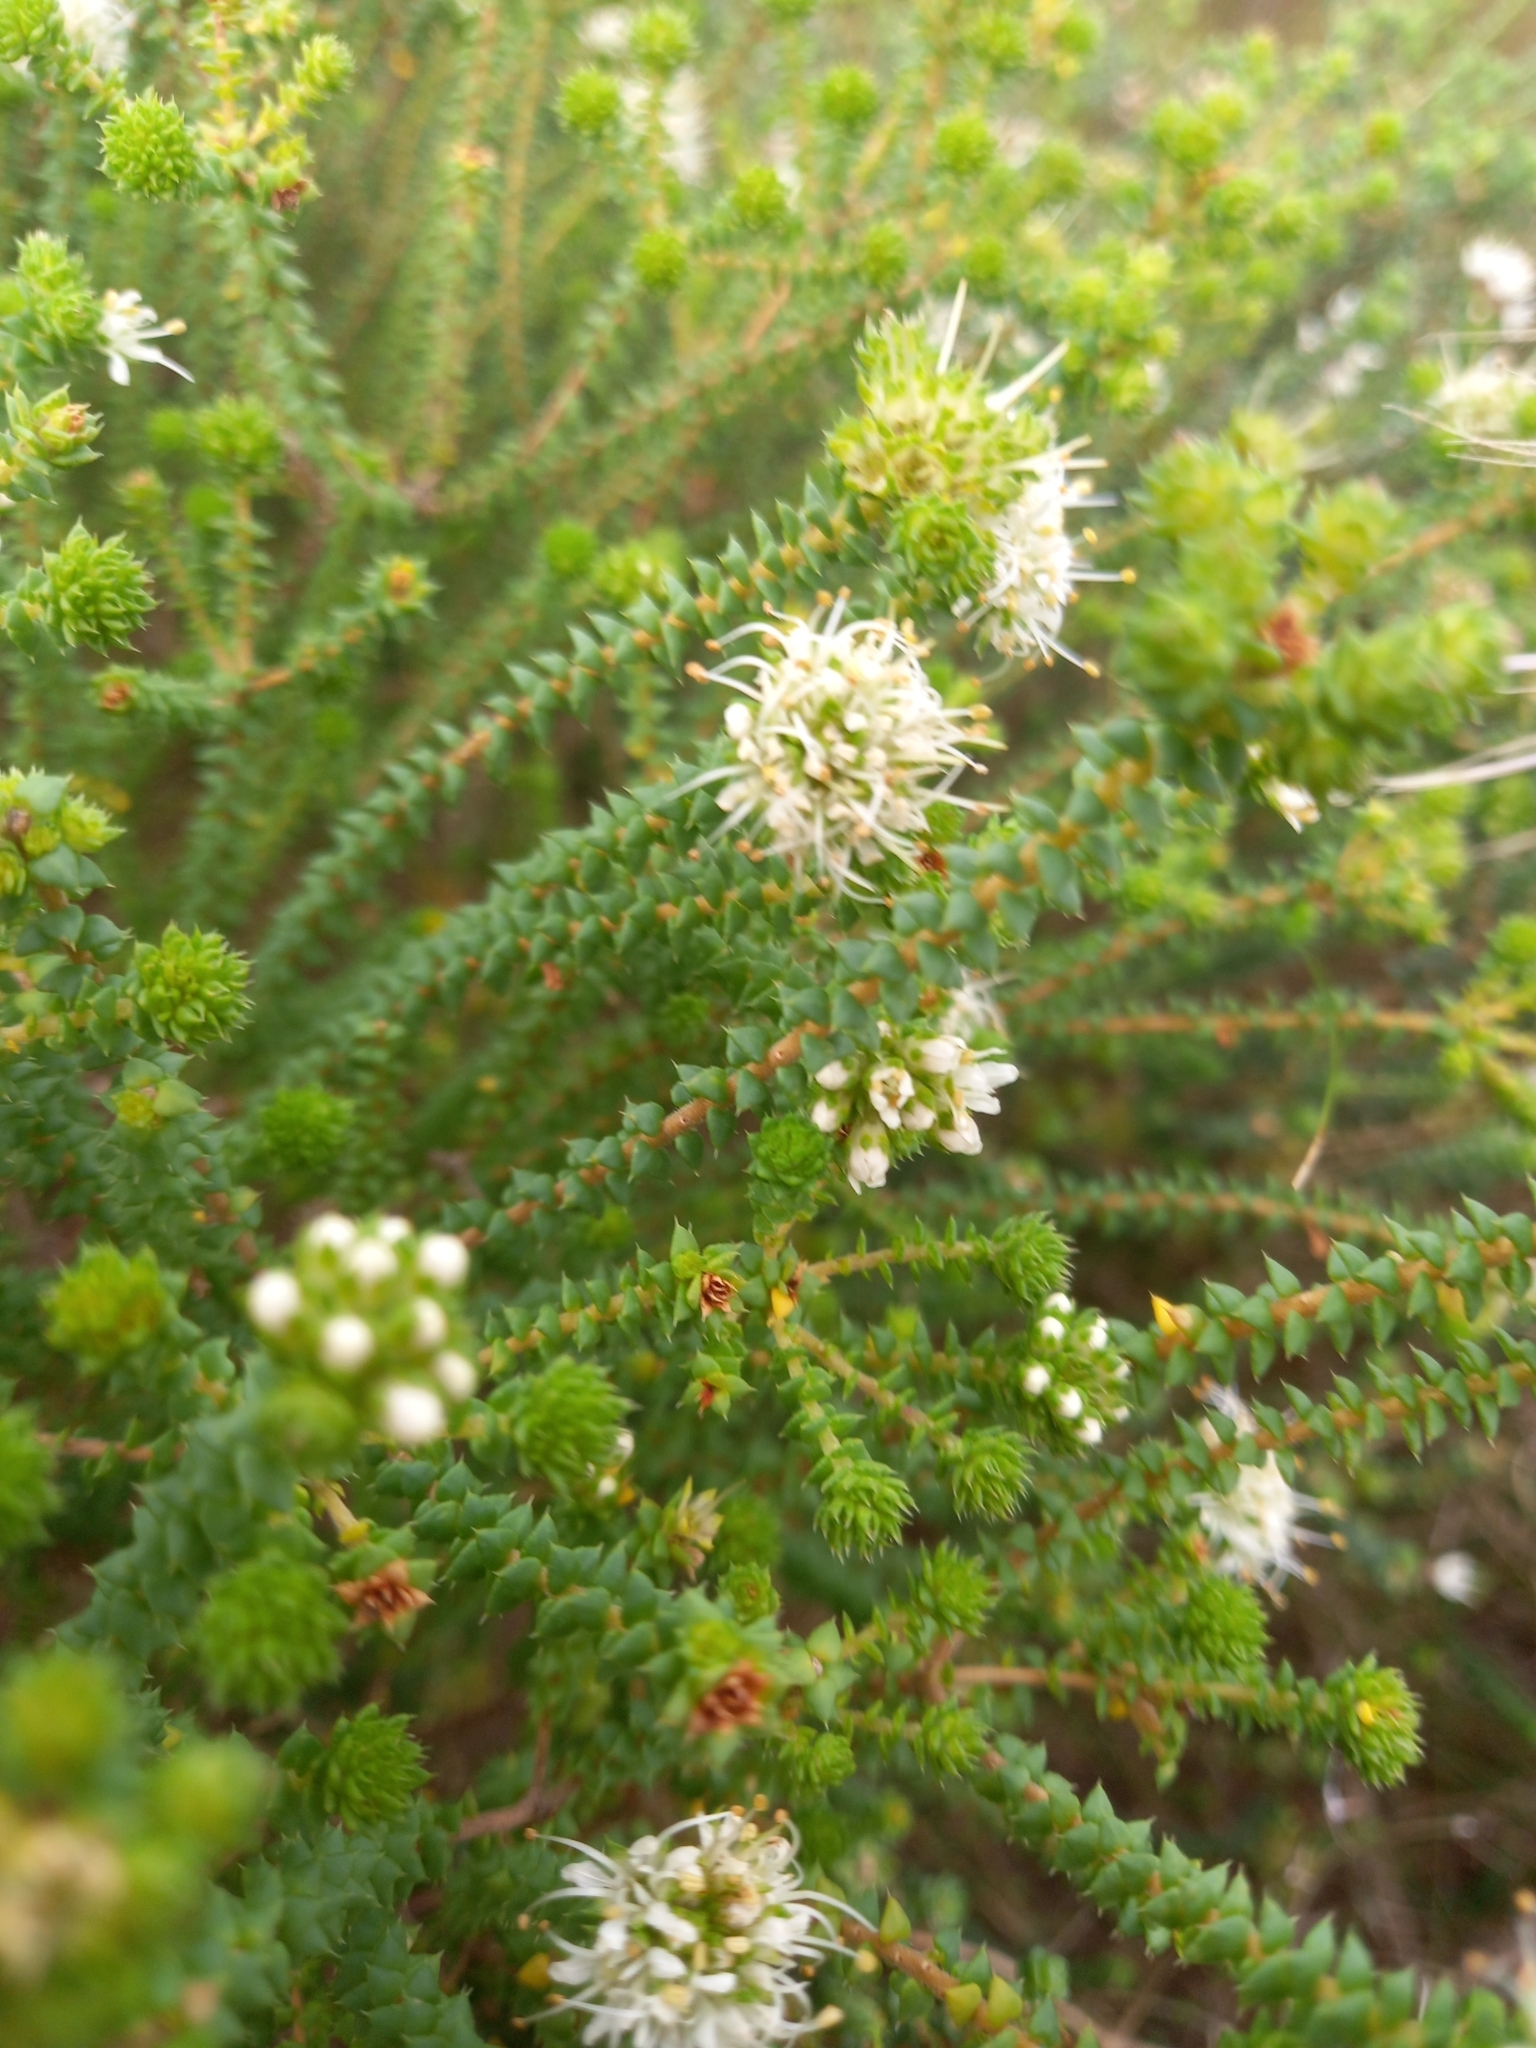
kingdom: Plantae
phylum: Tracheophyta
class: Magnoliopsida
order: Sapindales
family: Rutaceae
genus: Agathosma
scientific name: Agathosma apiculata
